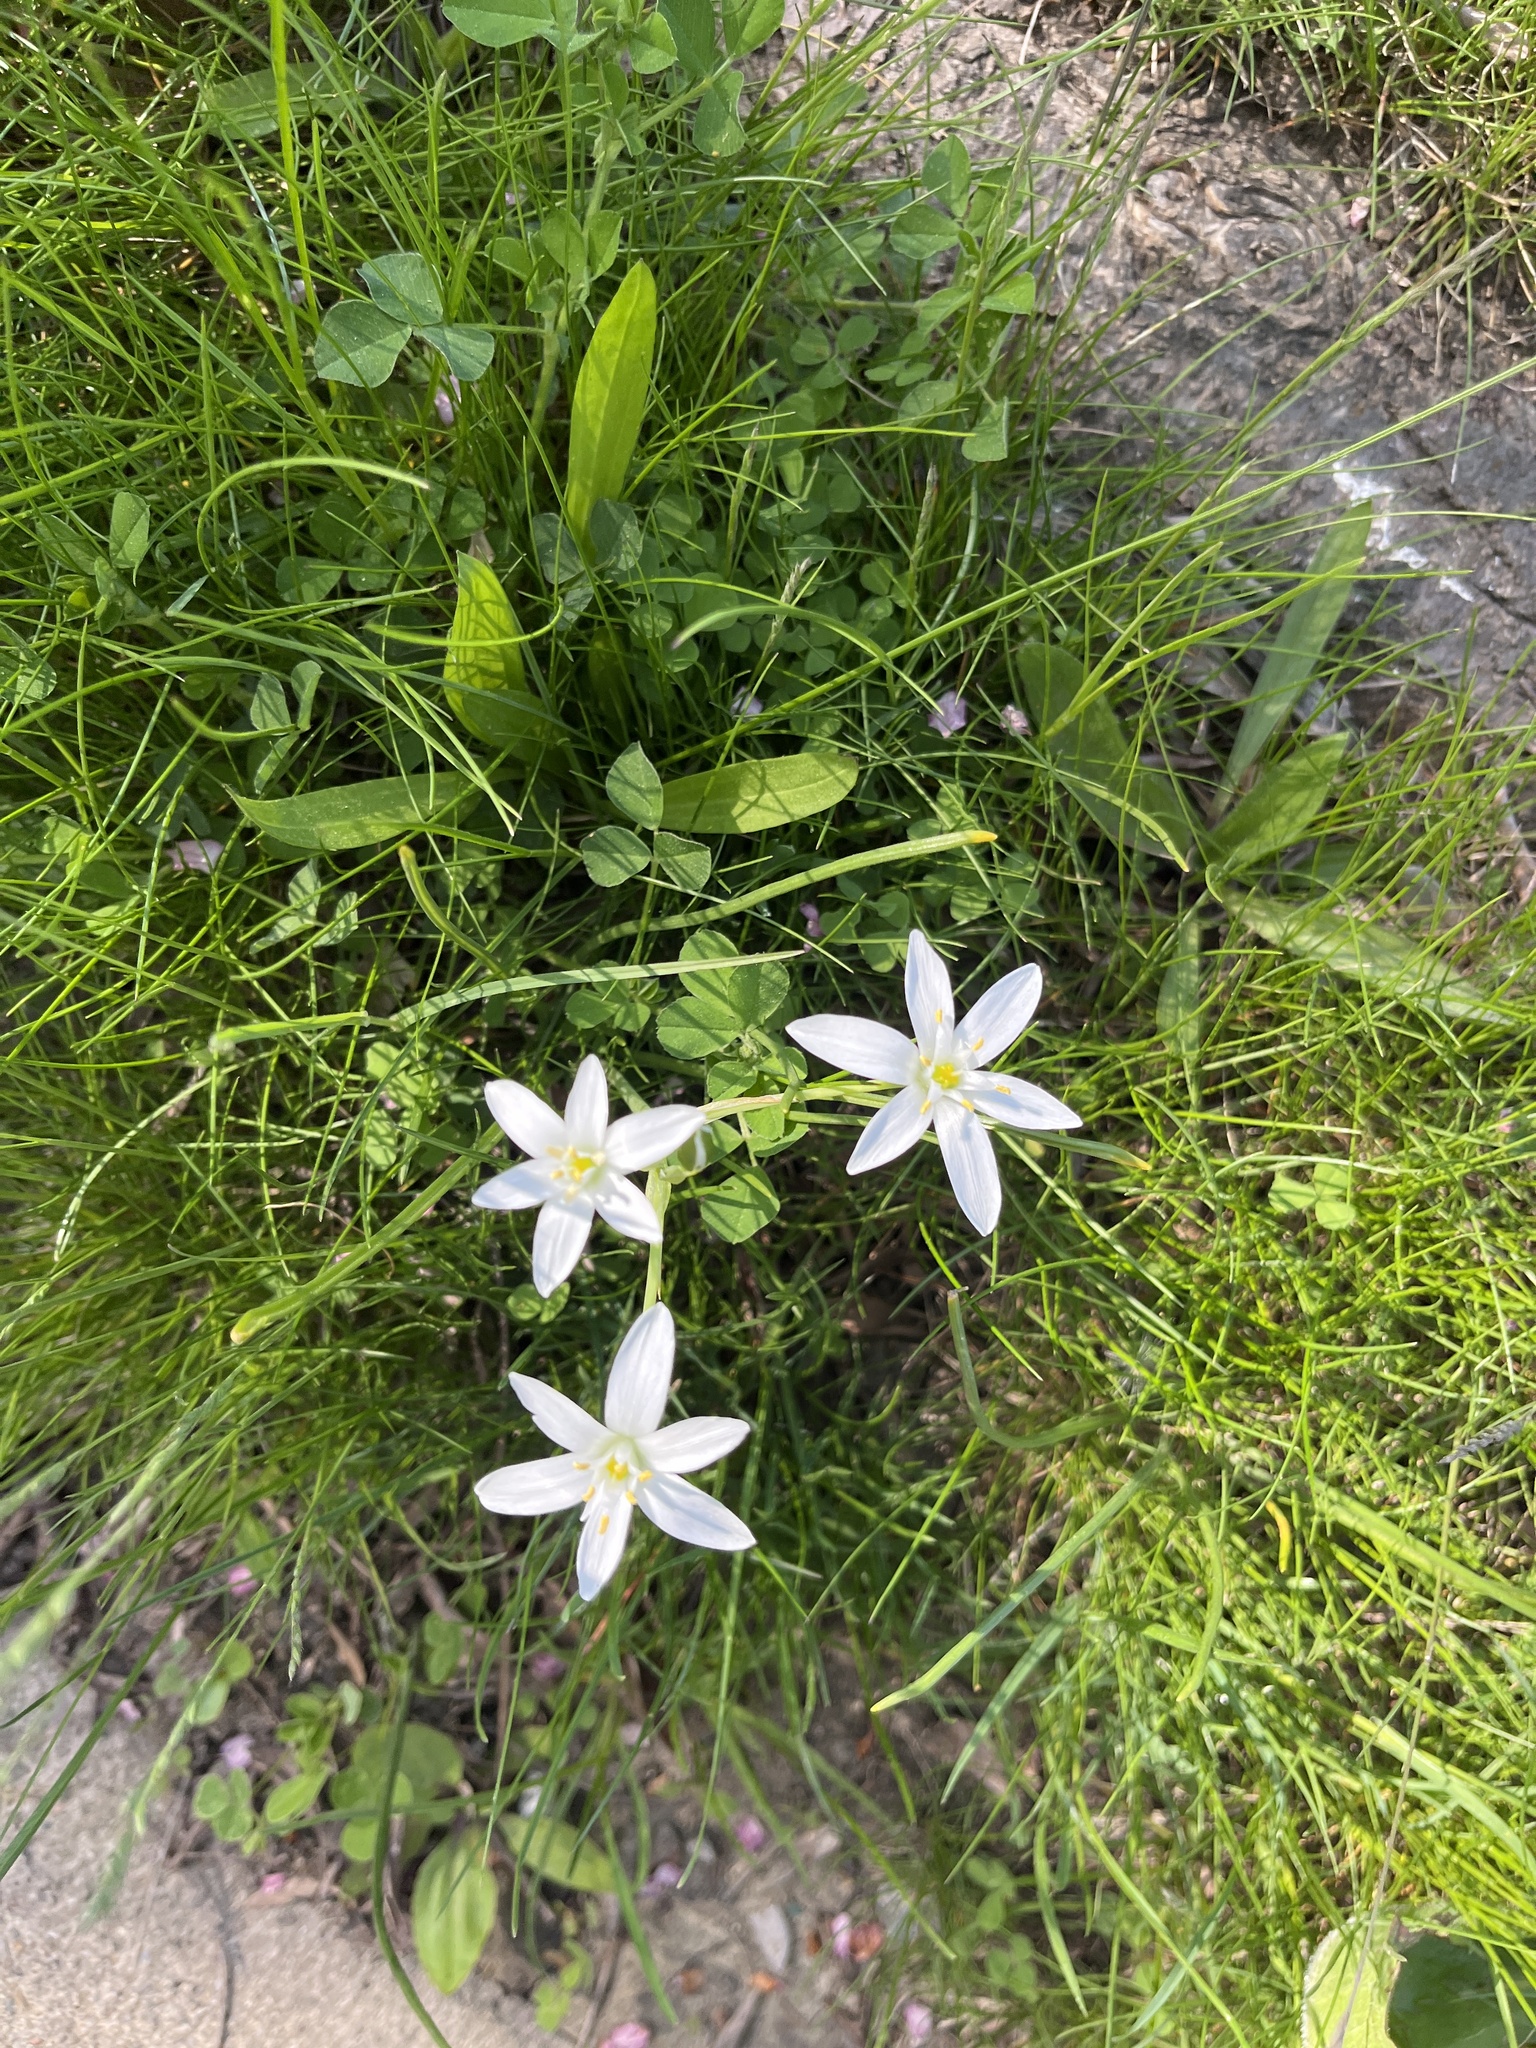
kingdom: Plantae
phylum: Tracheophyta
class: Liliopsida
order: Asparagales
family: Asparagaceae
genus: Ornithogalum
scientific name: Ornithogalum umbellatum
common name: Garden star-of-bethlehem
